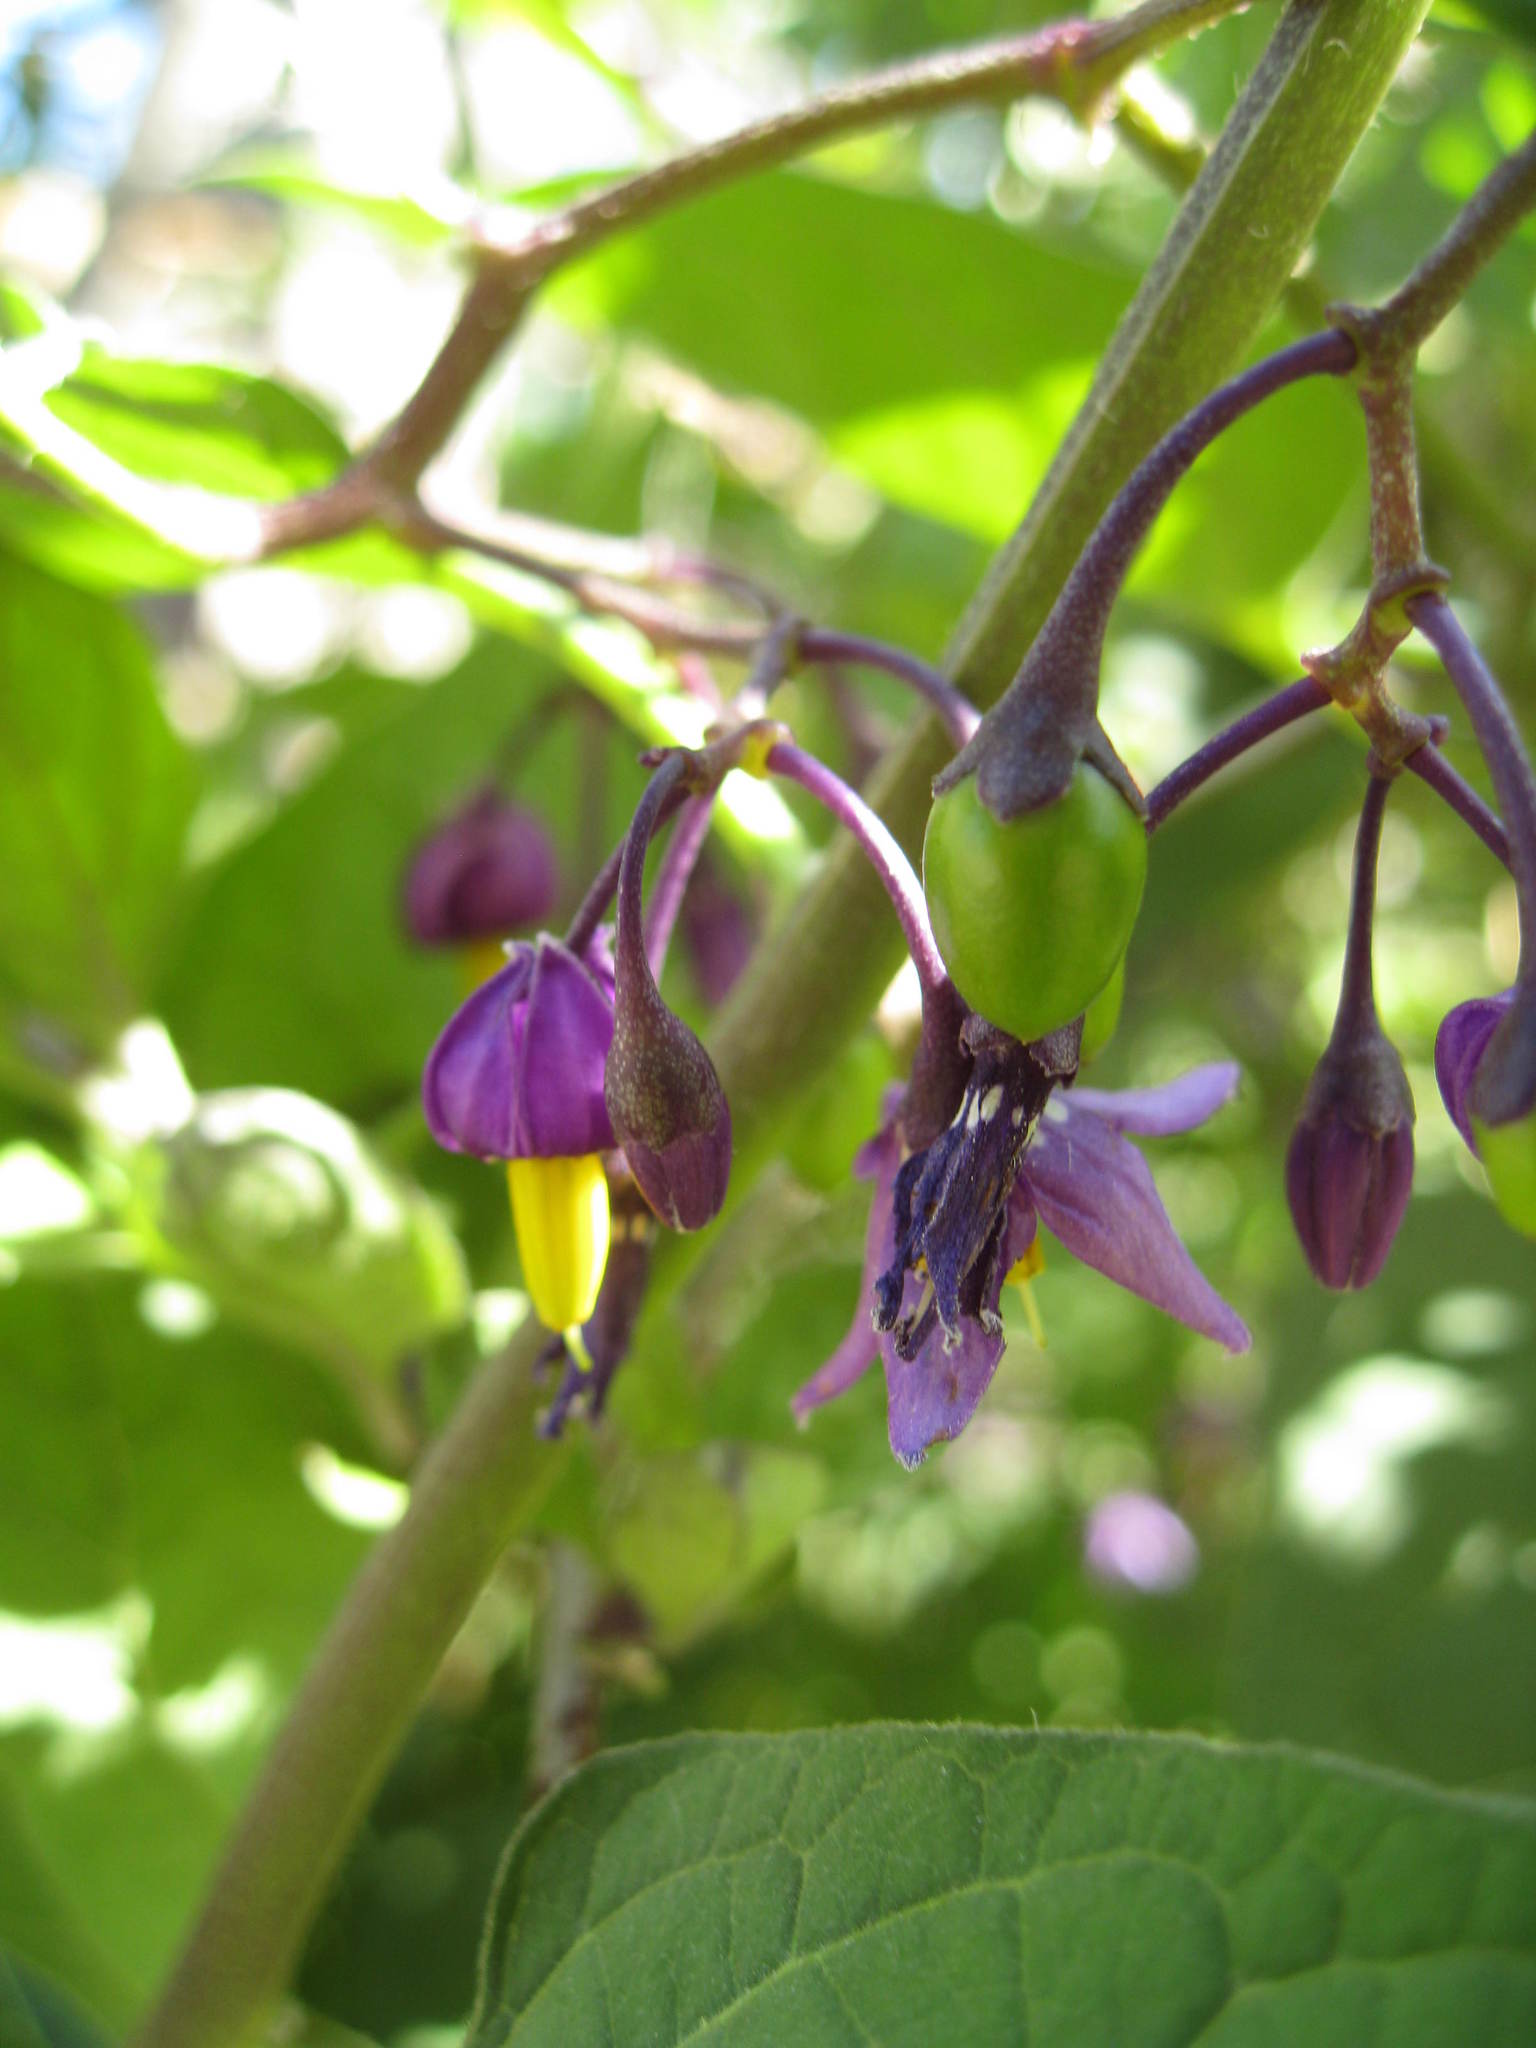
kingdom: Plantae
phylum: Tracheophyta
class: Magnoliopsida
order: Solanales
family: Solanaceae
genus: Solanum
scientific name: Solanum dulcamara
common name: Climbing nightshade
